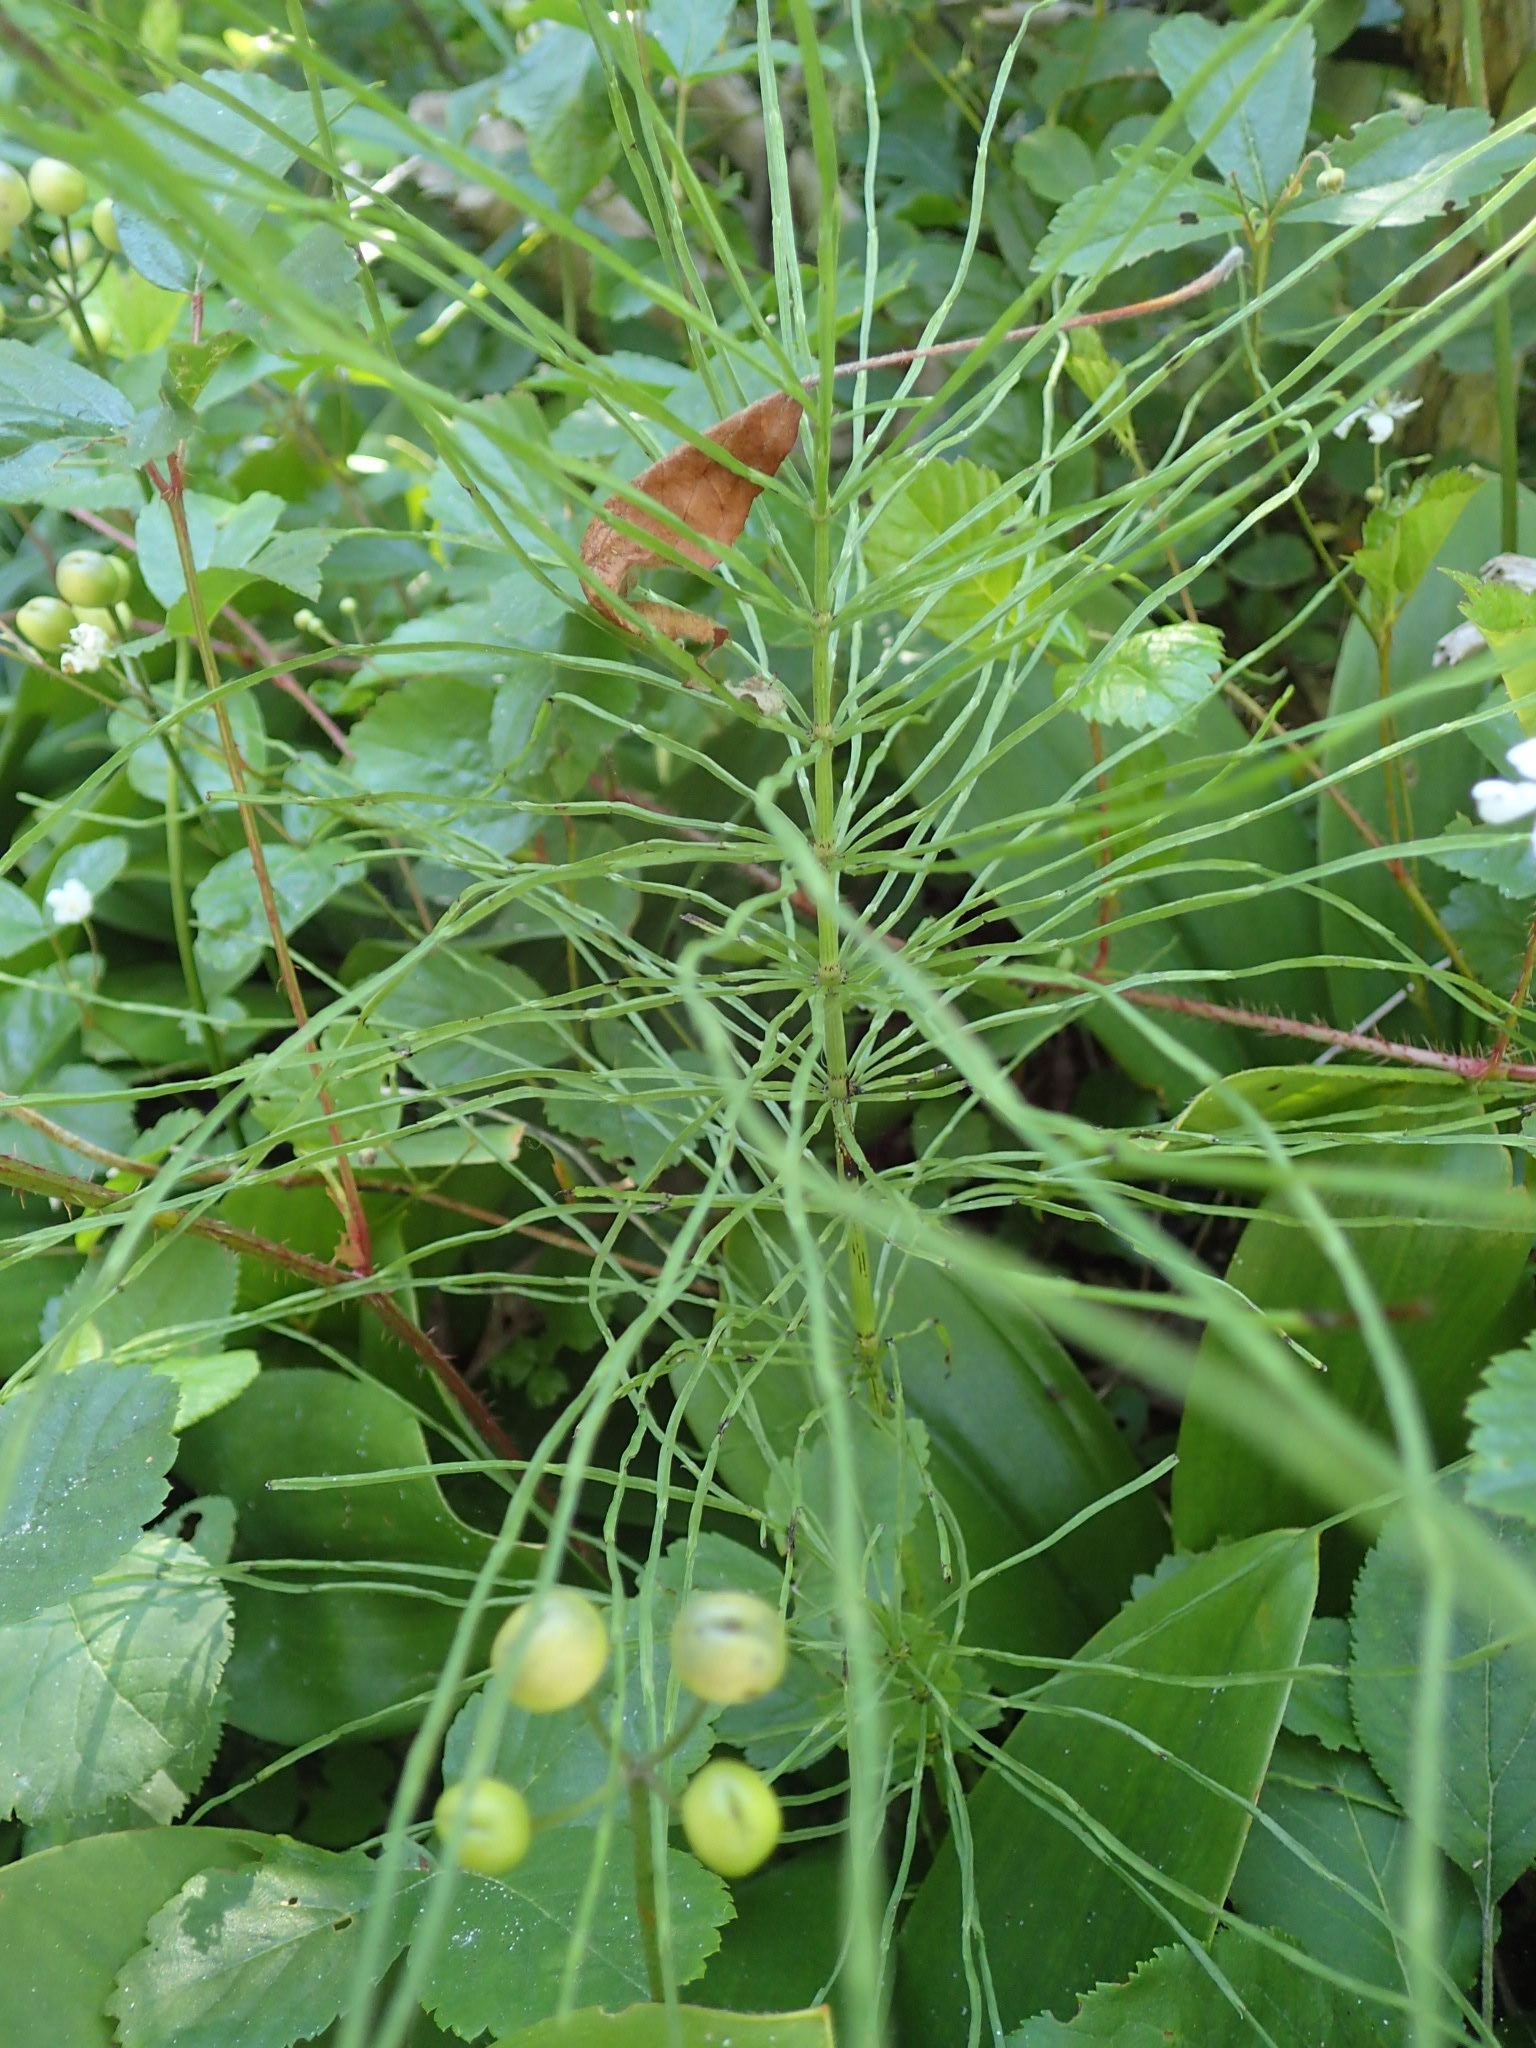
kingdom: Plantae
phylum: Tracheophyta
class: Polypodiopsida
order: Equisetales
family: Equisetaceae
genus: Equisetum
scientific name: Equisetum arvense
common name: Field horsetail
